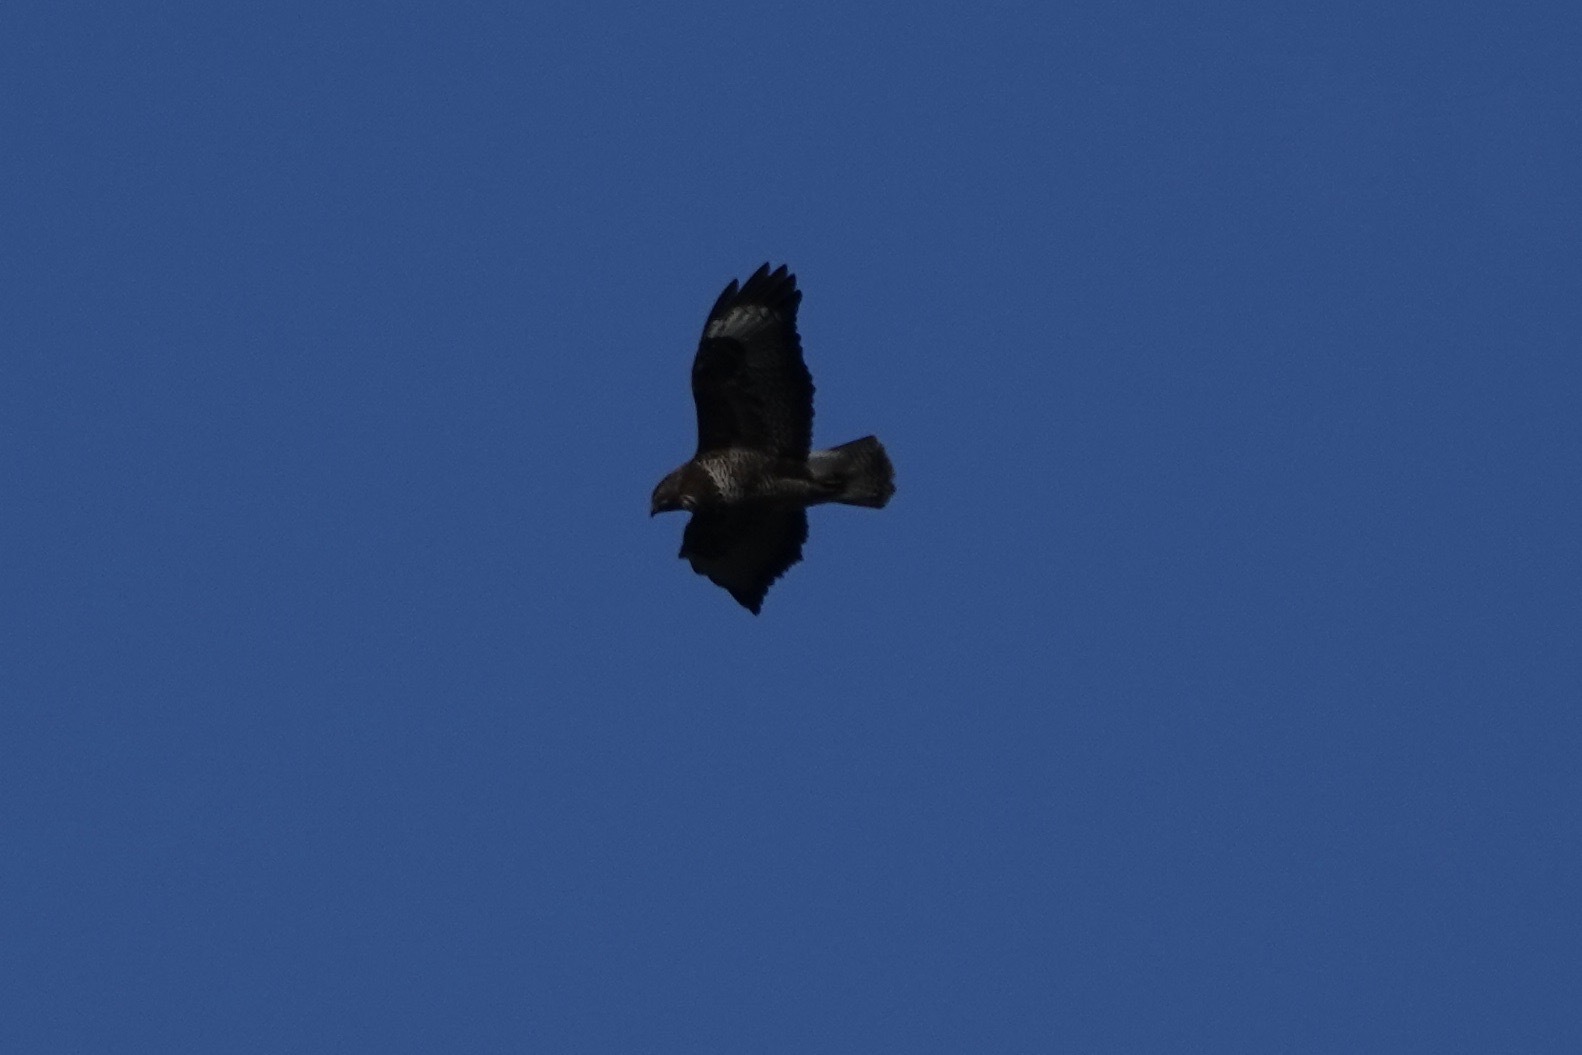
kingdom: Animalia
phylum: Chordata
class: Aves
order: Accipitriformes
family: Accipitridae
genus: Buteo
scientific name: Buteo buteo
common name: Common buzzard
